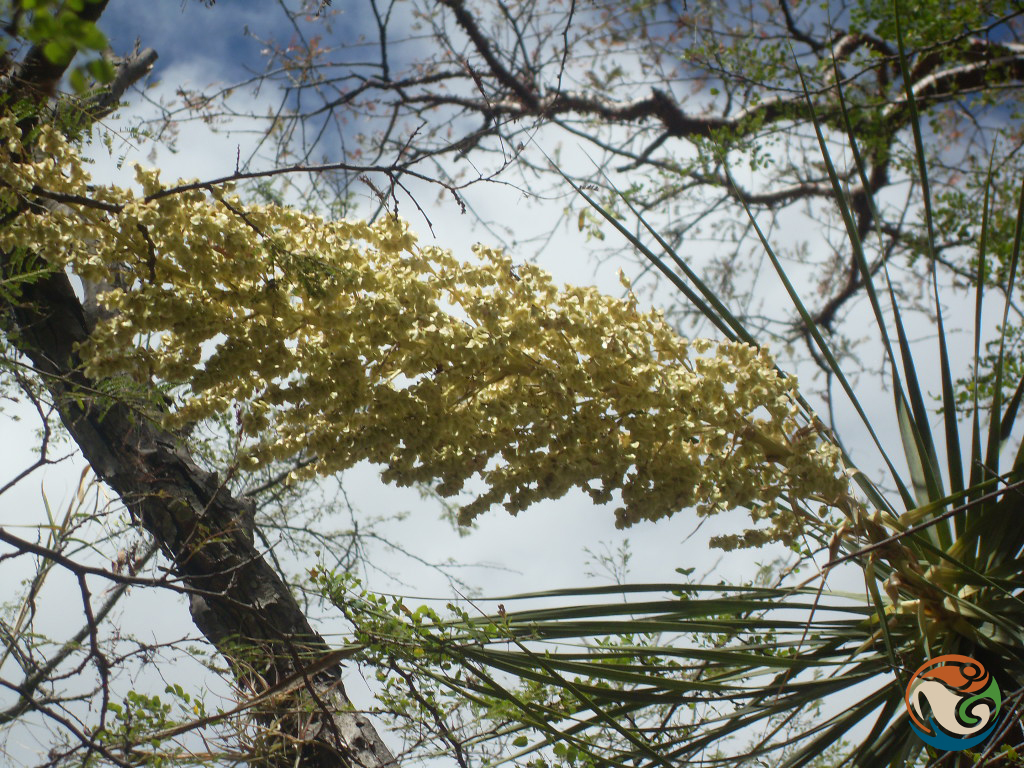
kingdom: Plantae
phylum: Tracheophyta
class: Liliopsida
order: Asparagales
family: Asparagaceae
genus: Beaucarnea
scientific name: Beaucarnea stricta
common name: Bottle palm
